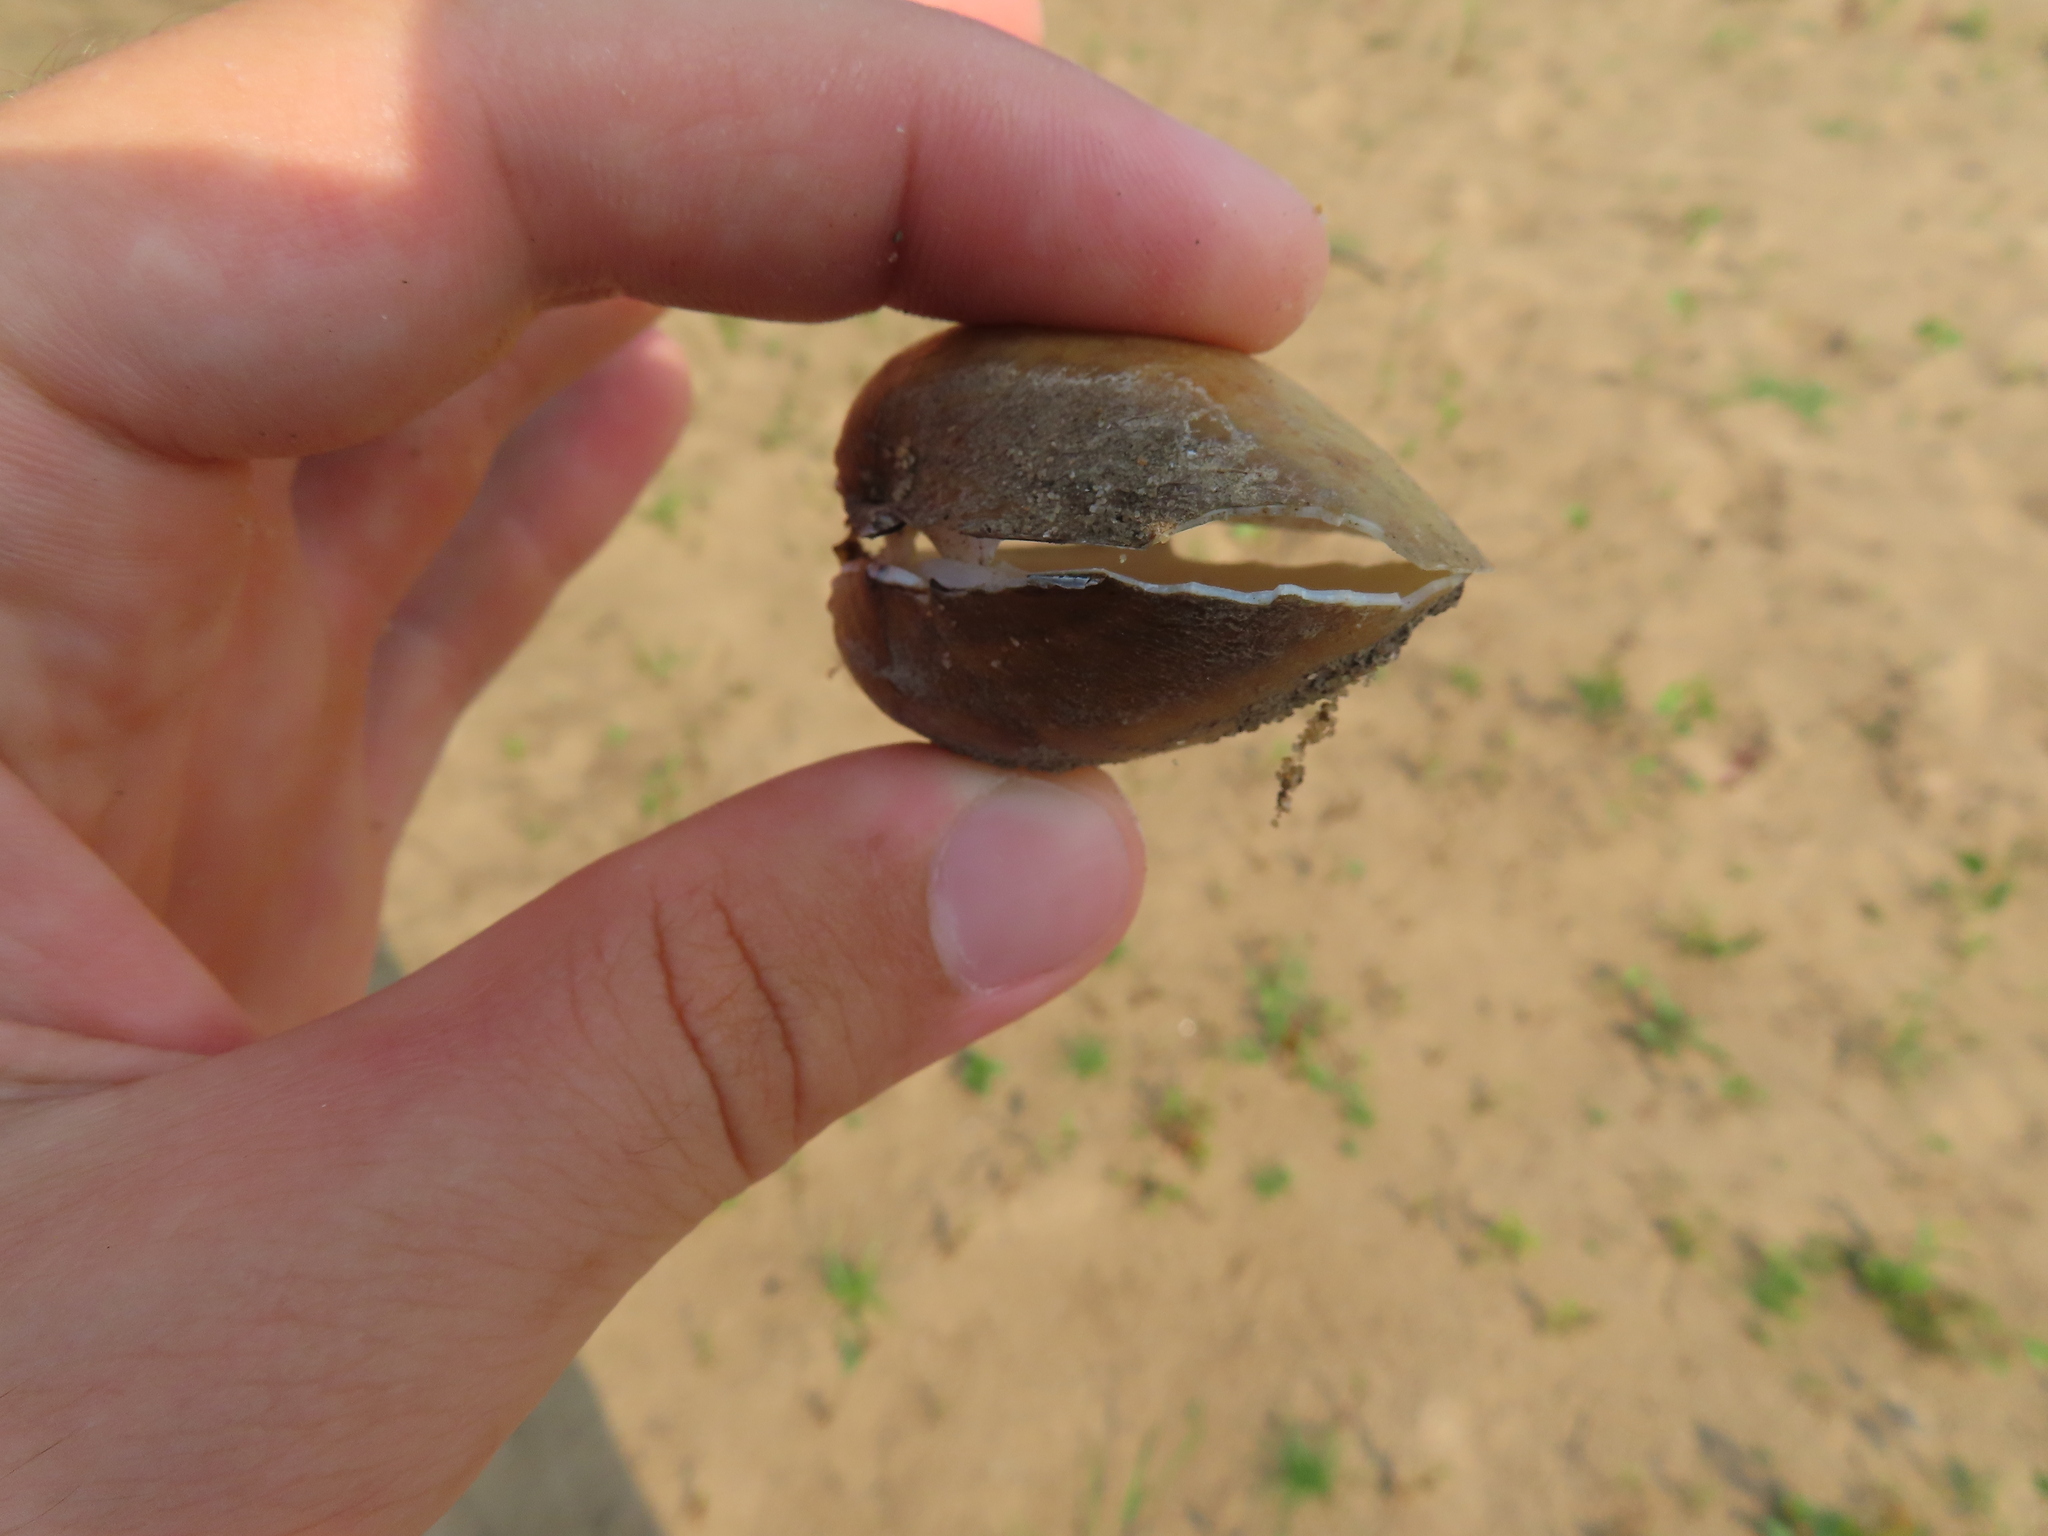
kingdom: Animalia
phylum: Mollusca
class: Bivalvia
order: Unionida
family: Unionidae
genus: Lampsilis
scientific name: Lampsilis cardium
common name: Plain pocketbook
